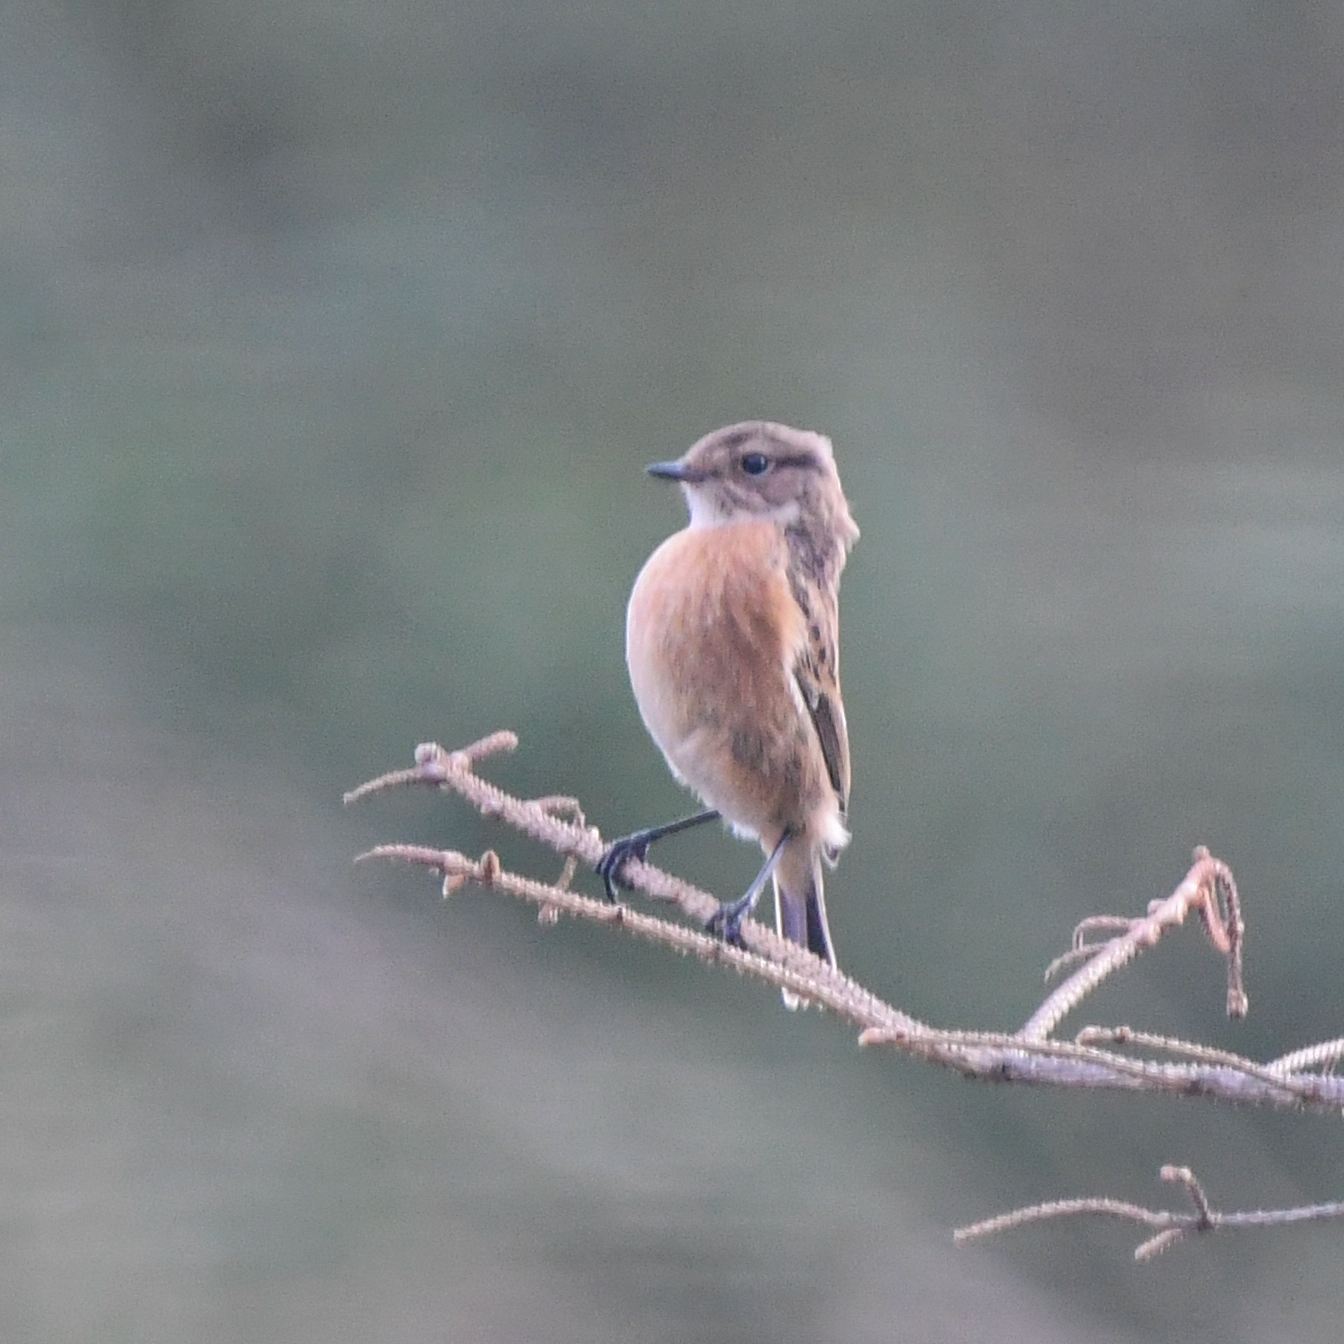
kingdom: Animalia
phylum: Chordata
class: Aves
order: Passeriformes
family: Muscicapidae
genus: Saxicola
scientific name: Saxicola rubicola
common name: European stonechat
